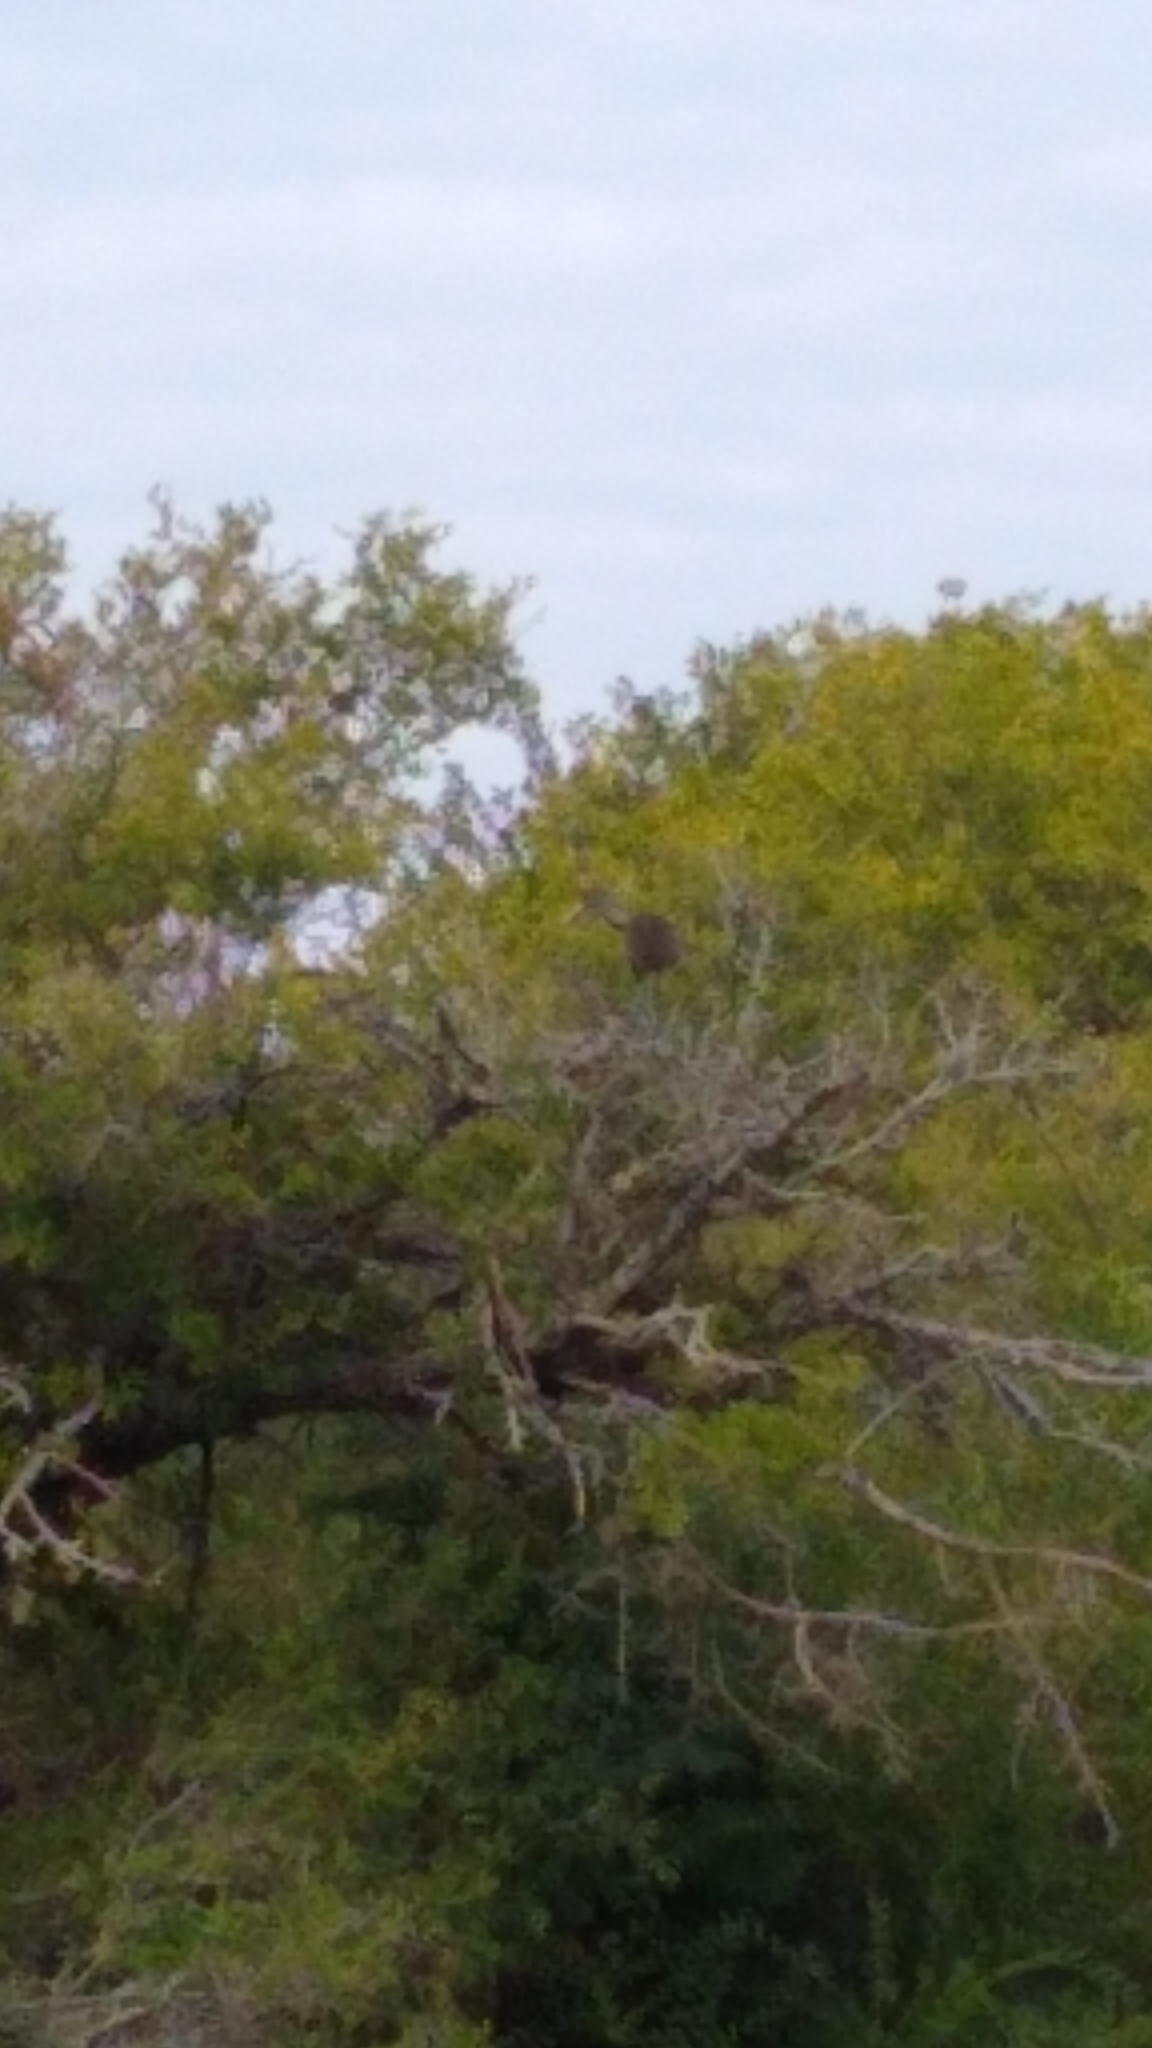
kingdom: Animalia
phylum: Chordata
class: Aves
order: Gruiformes
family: Aramidae
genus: Aramus
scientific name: Aramus guarauna
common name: Limpkin
